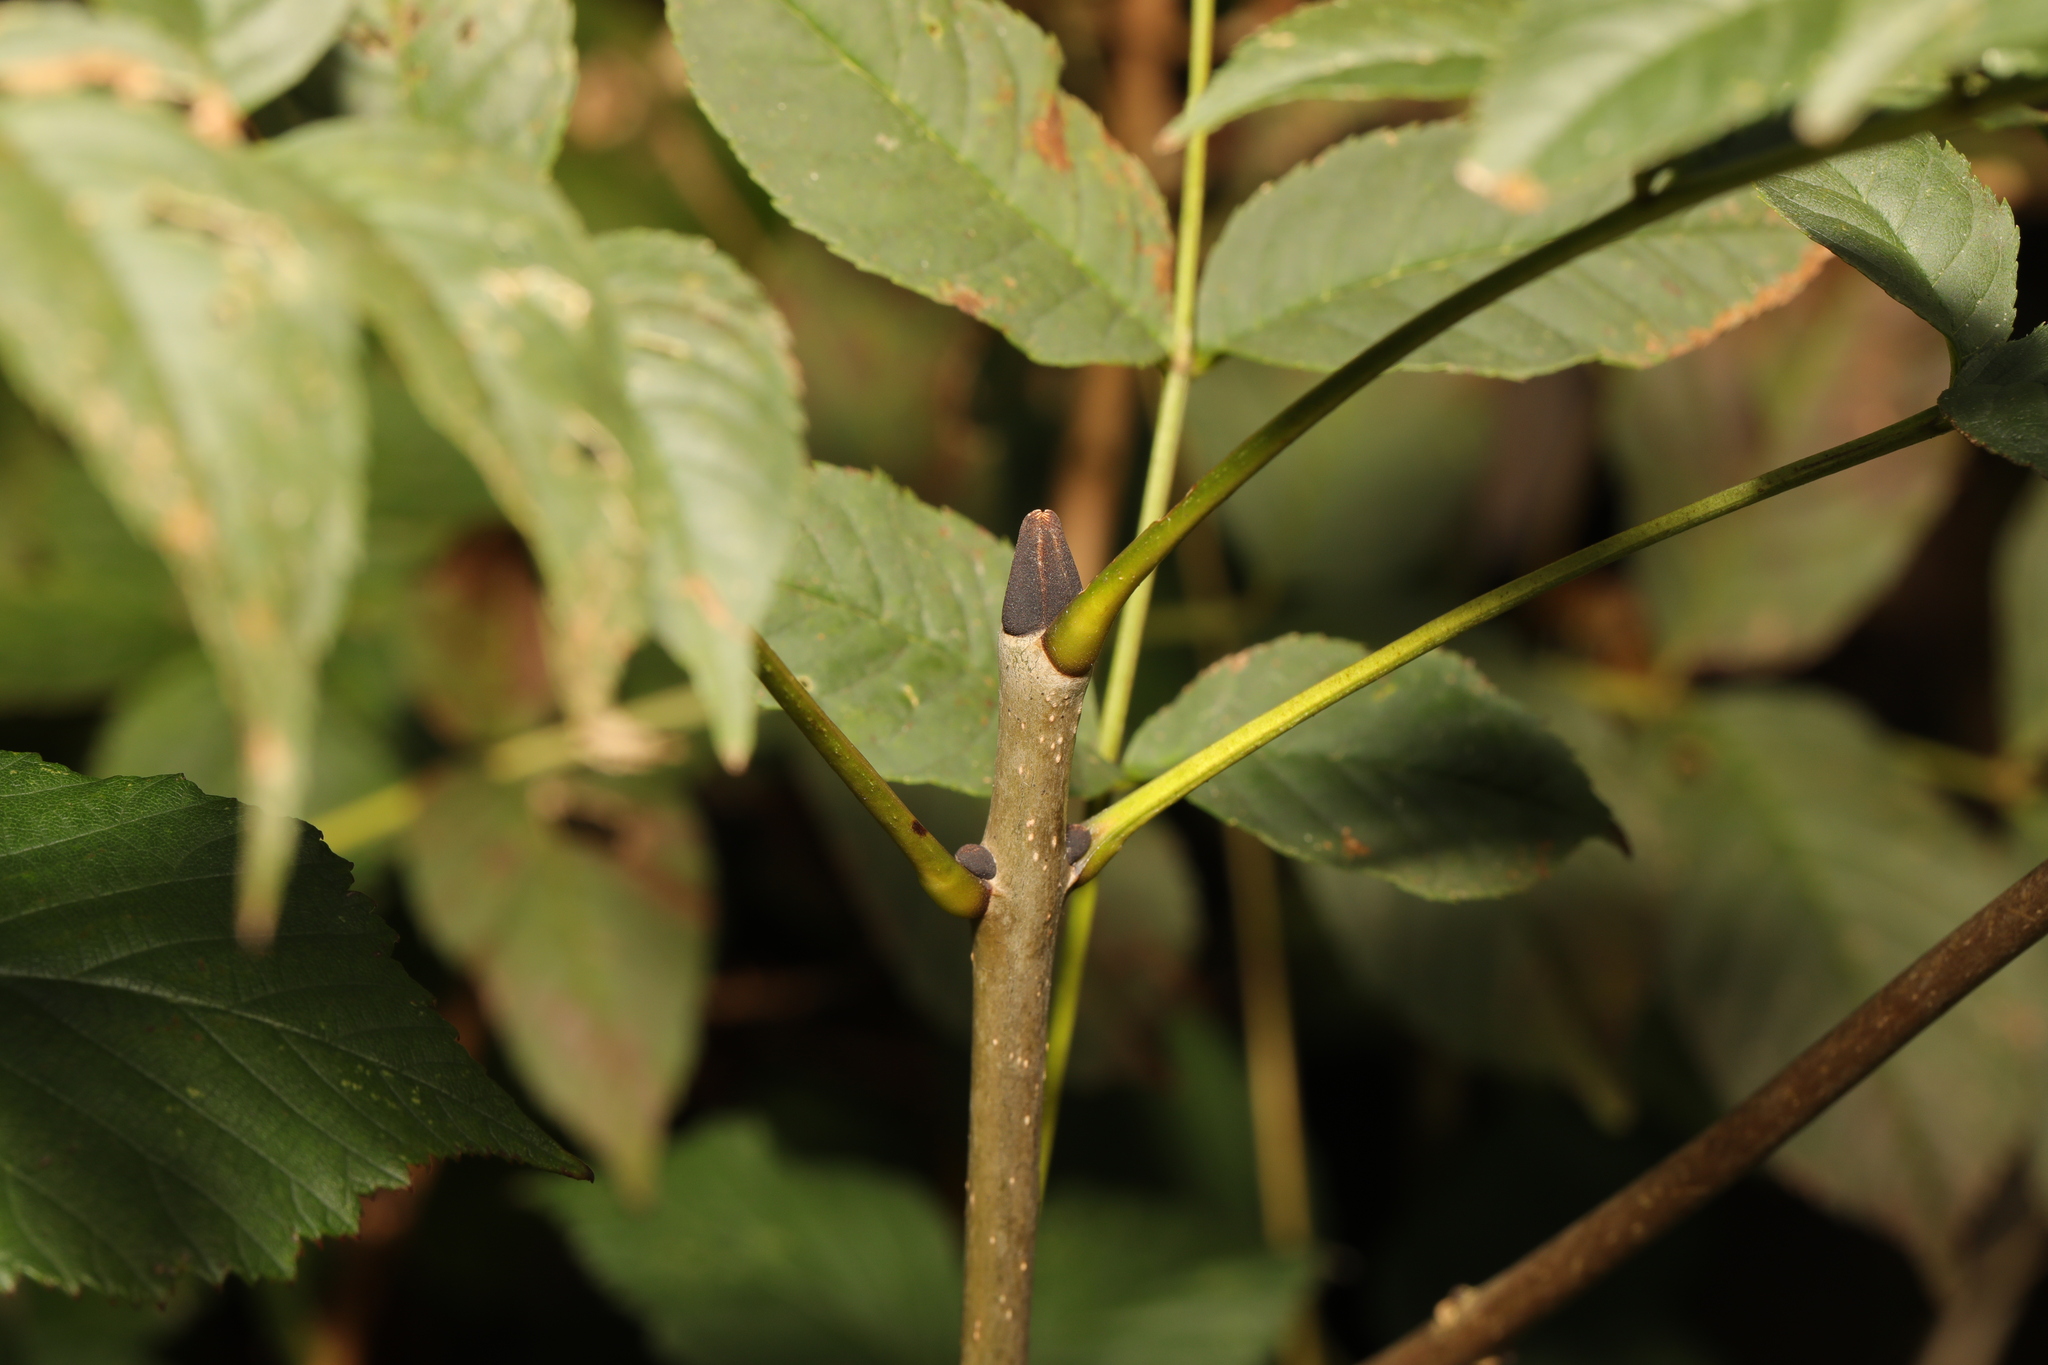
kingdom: Plantae
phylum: Tracheophyta
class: Magnoliopsida
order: Lamiales
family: Oleaceae
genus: Fraxinus
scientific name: Fraxinus excelsior
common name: European ash
